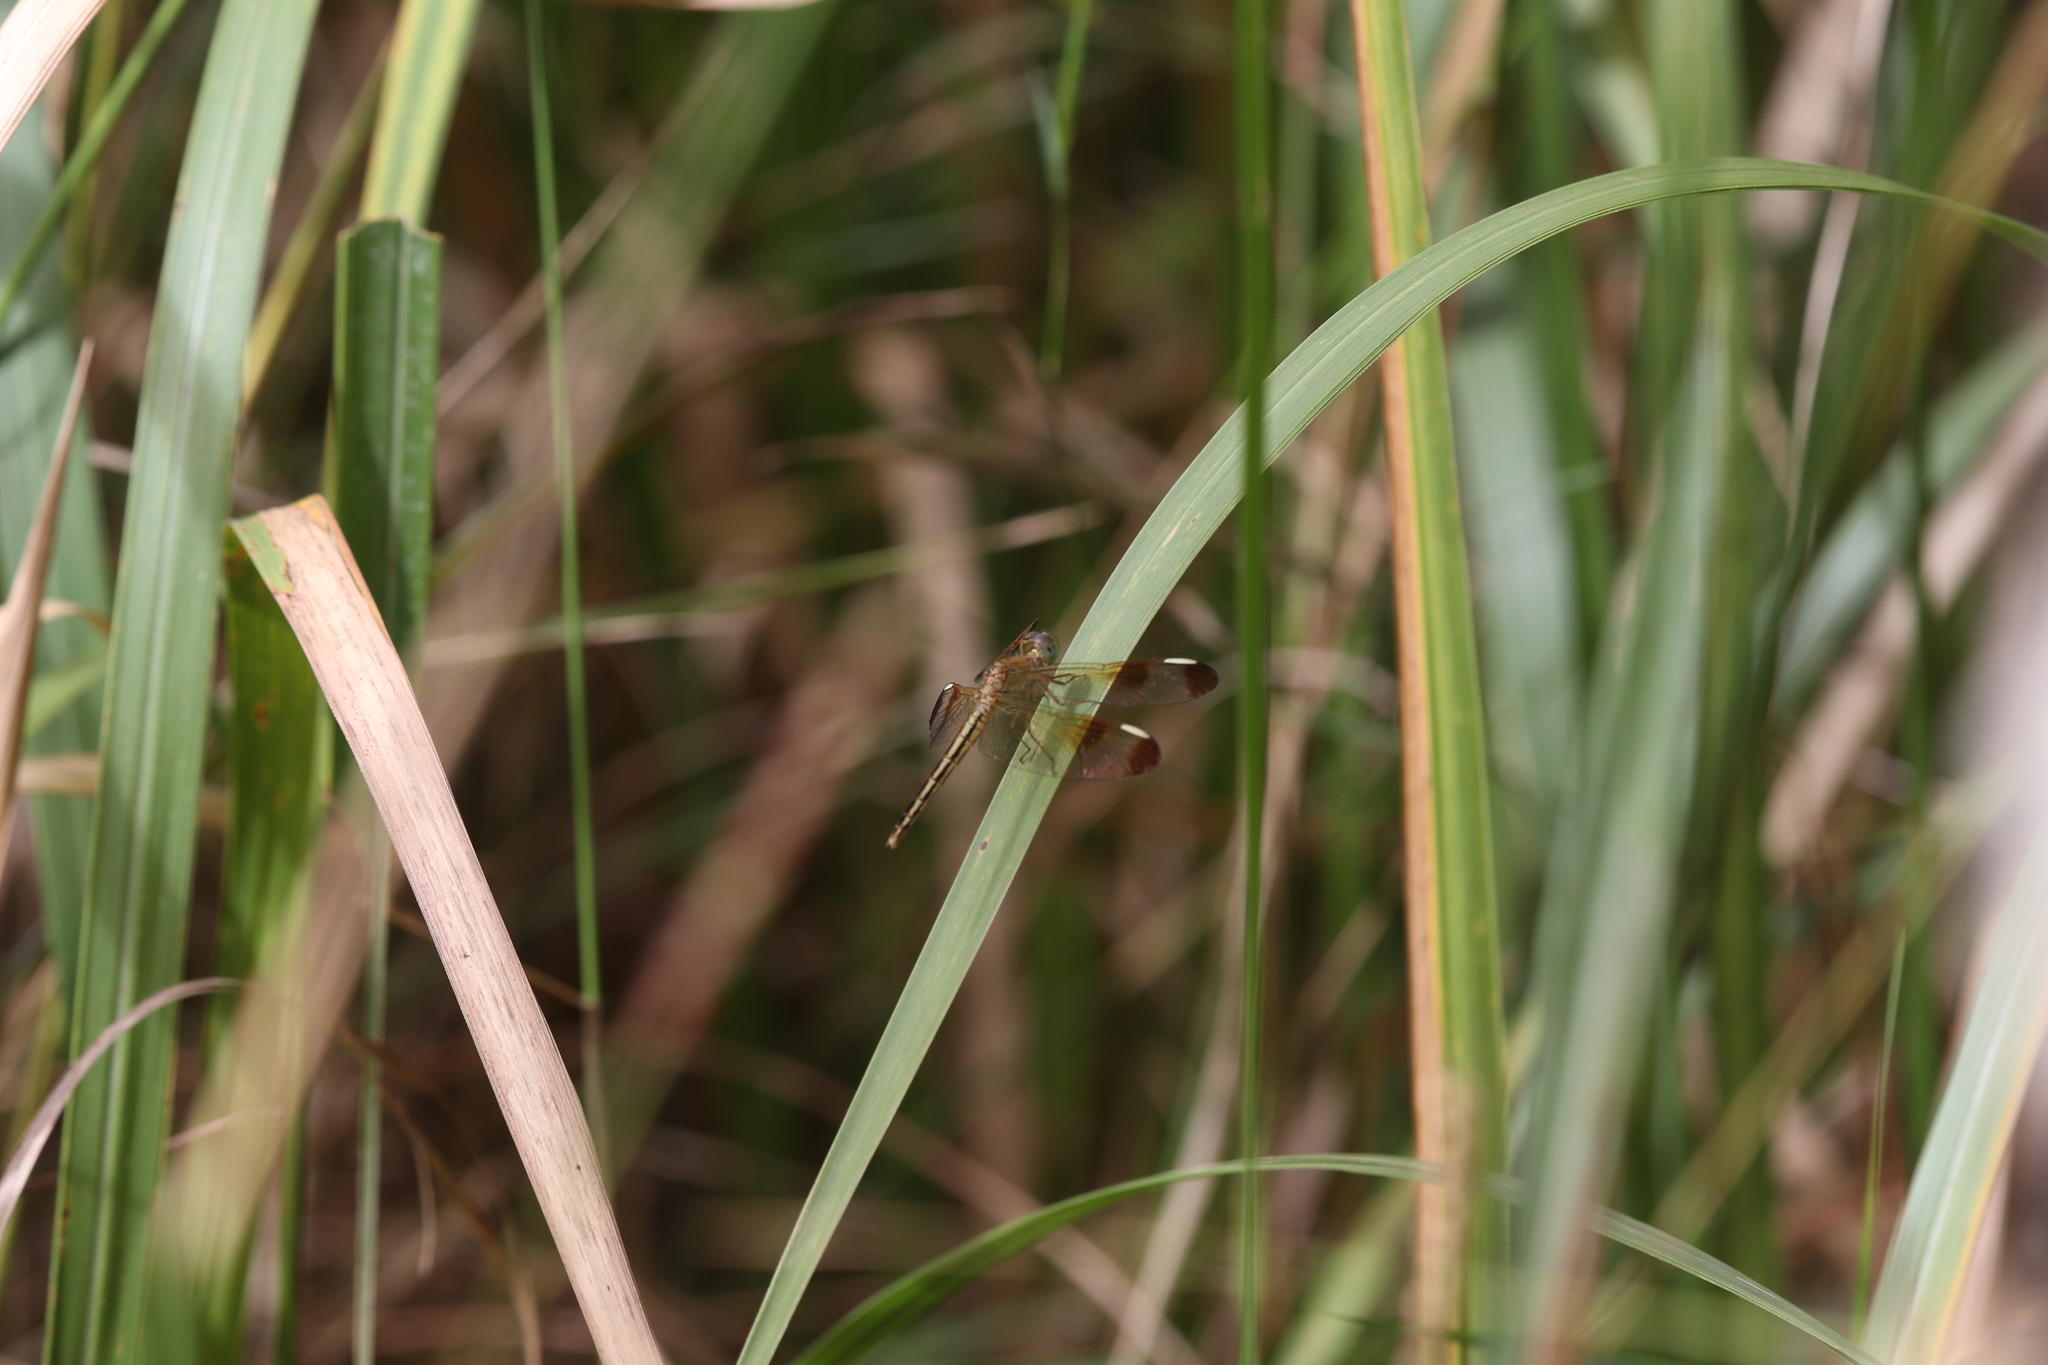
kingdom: Animalia
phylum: Arthropoda
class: Insecta
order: Odonata
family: Libellulidae
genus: Neurothemis
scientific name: Neurothemis stigmatizans
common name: Painted grasshawk
